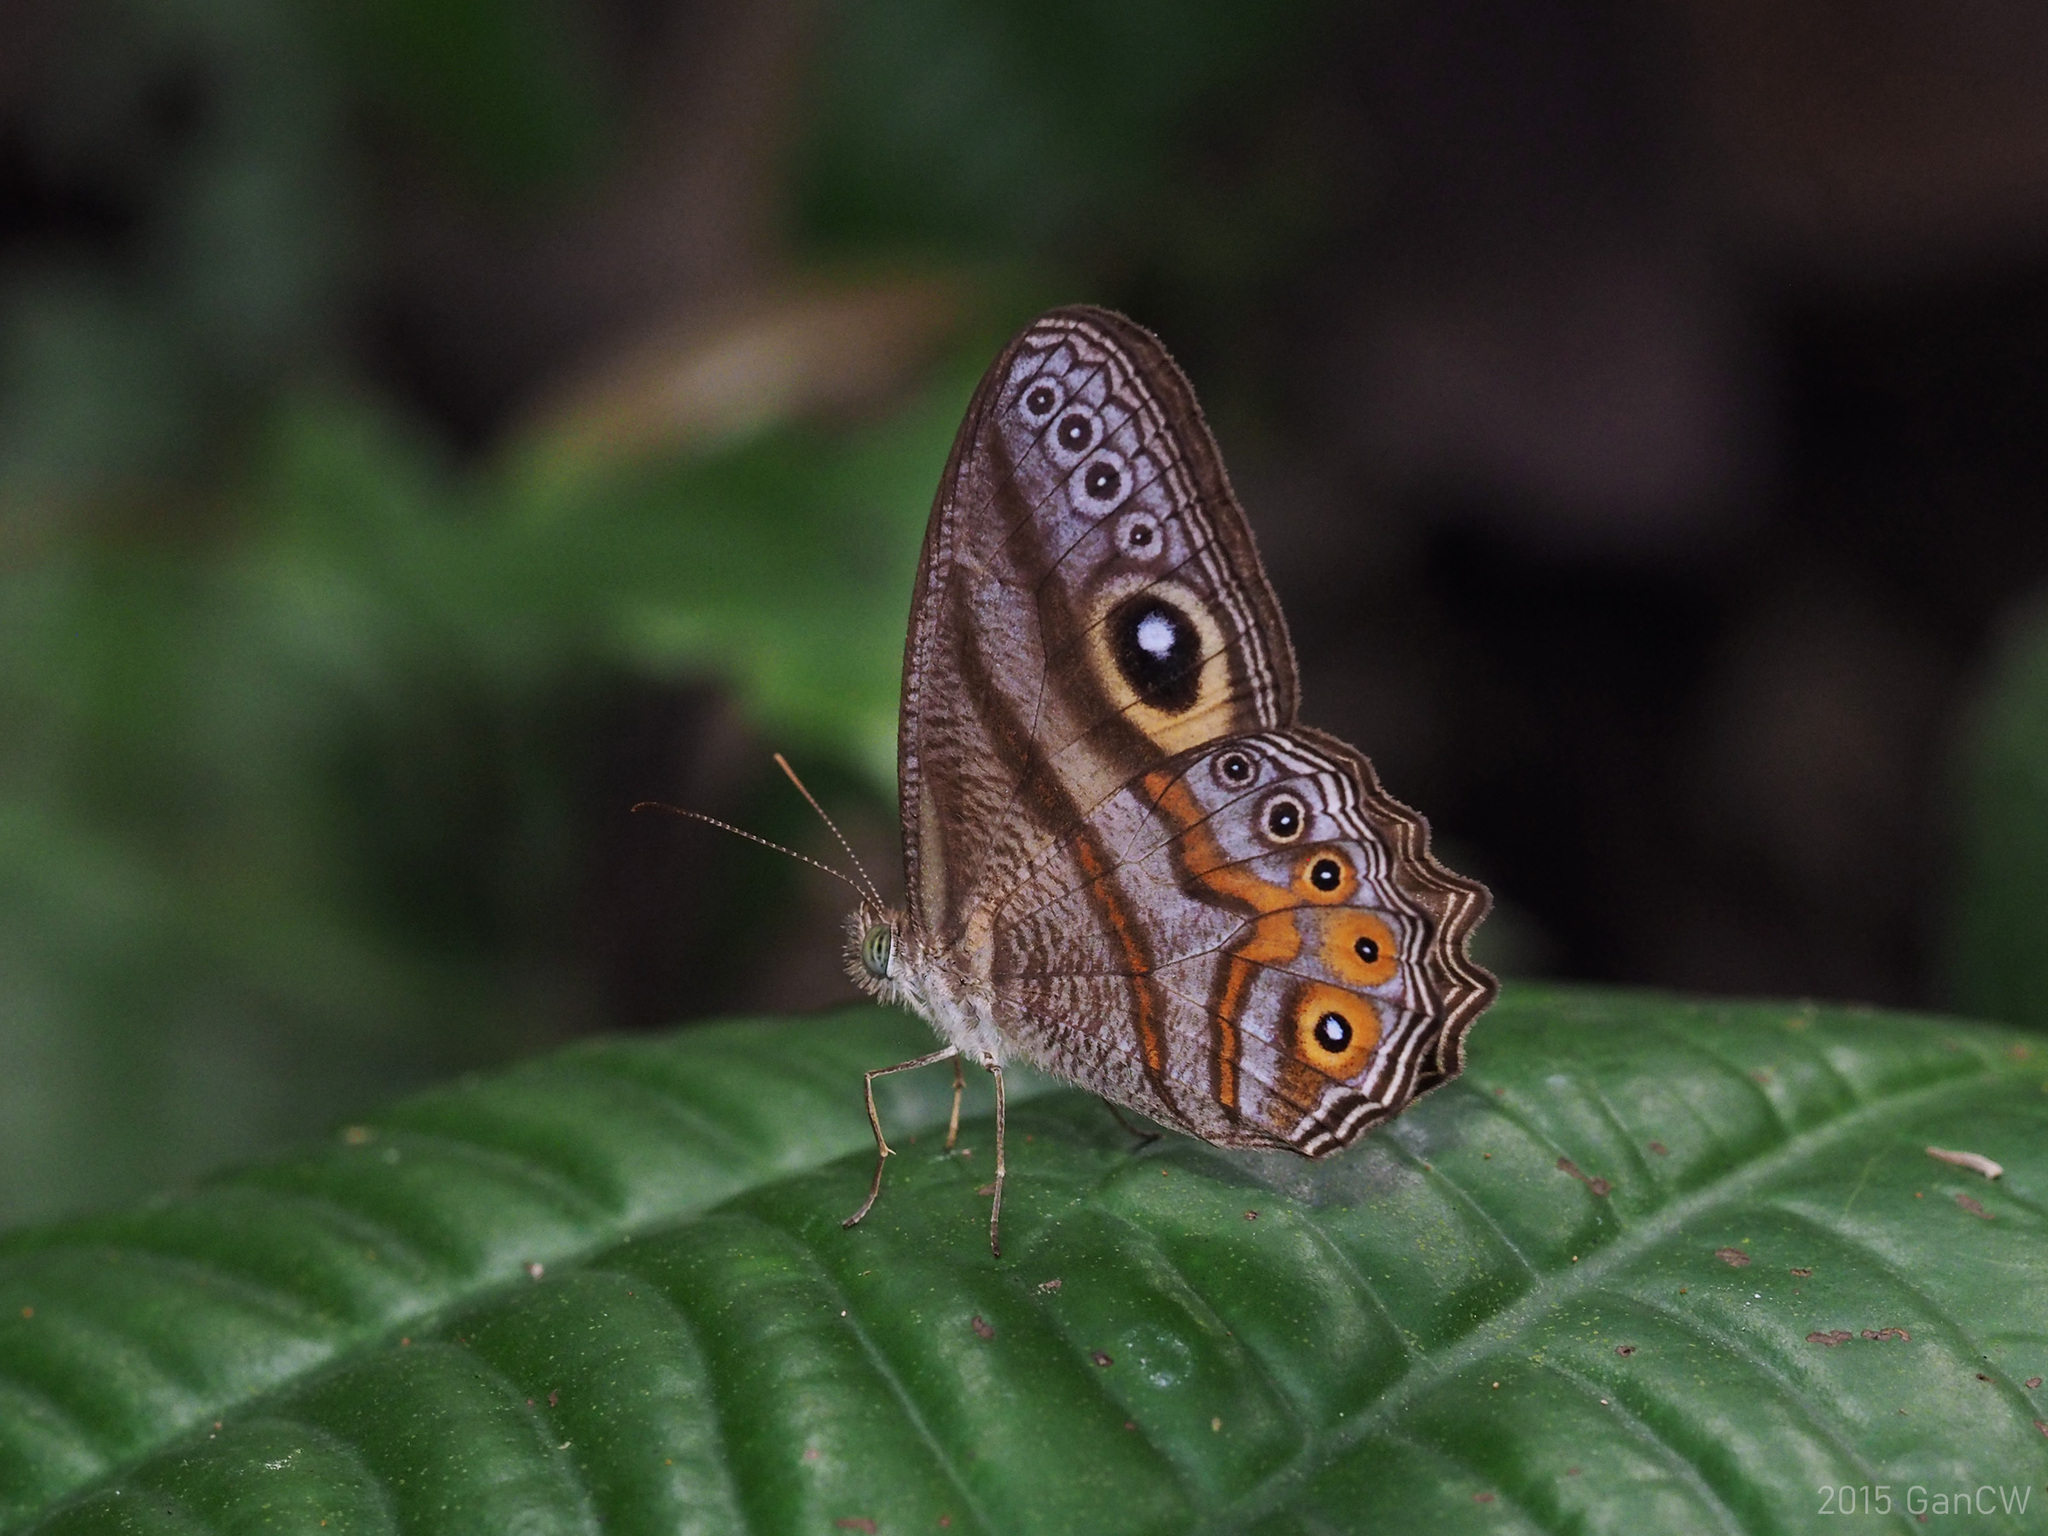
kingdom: Animalia
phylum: Arthropoda
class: Insecta
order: Lepidoptera
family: Nymphalidae
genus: Erites
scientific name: Erites argentina
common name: Eyed cyclops
